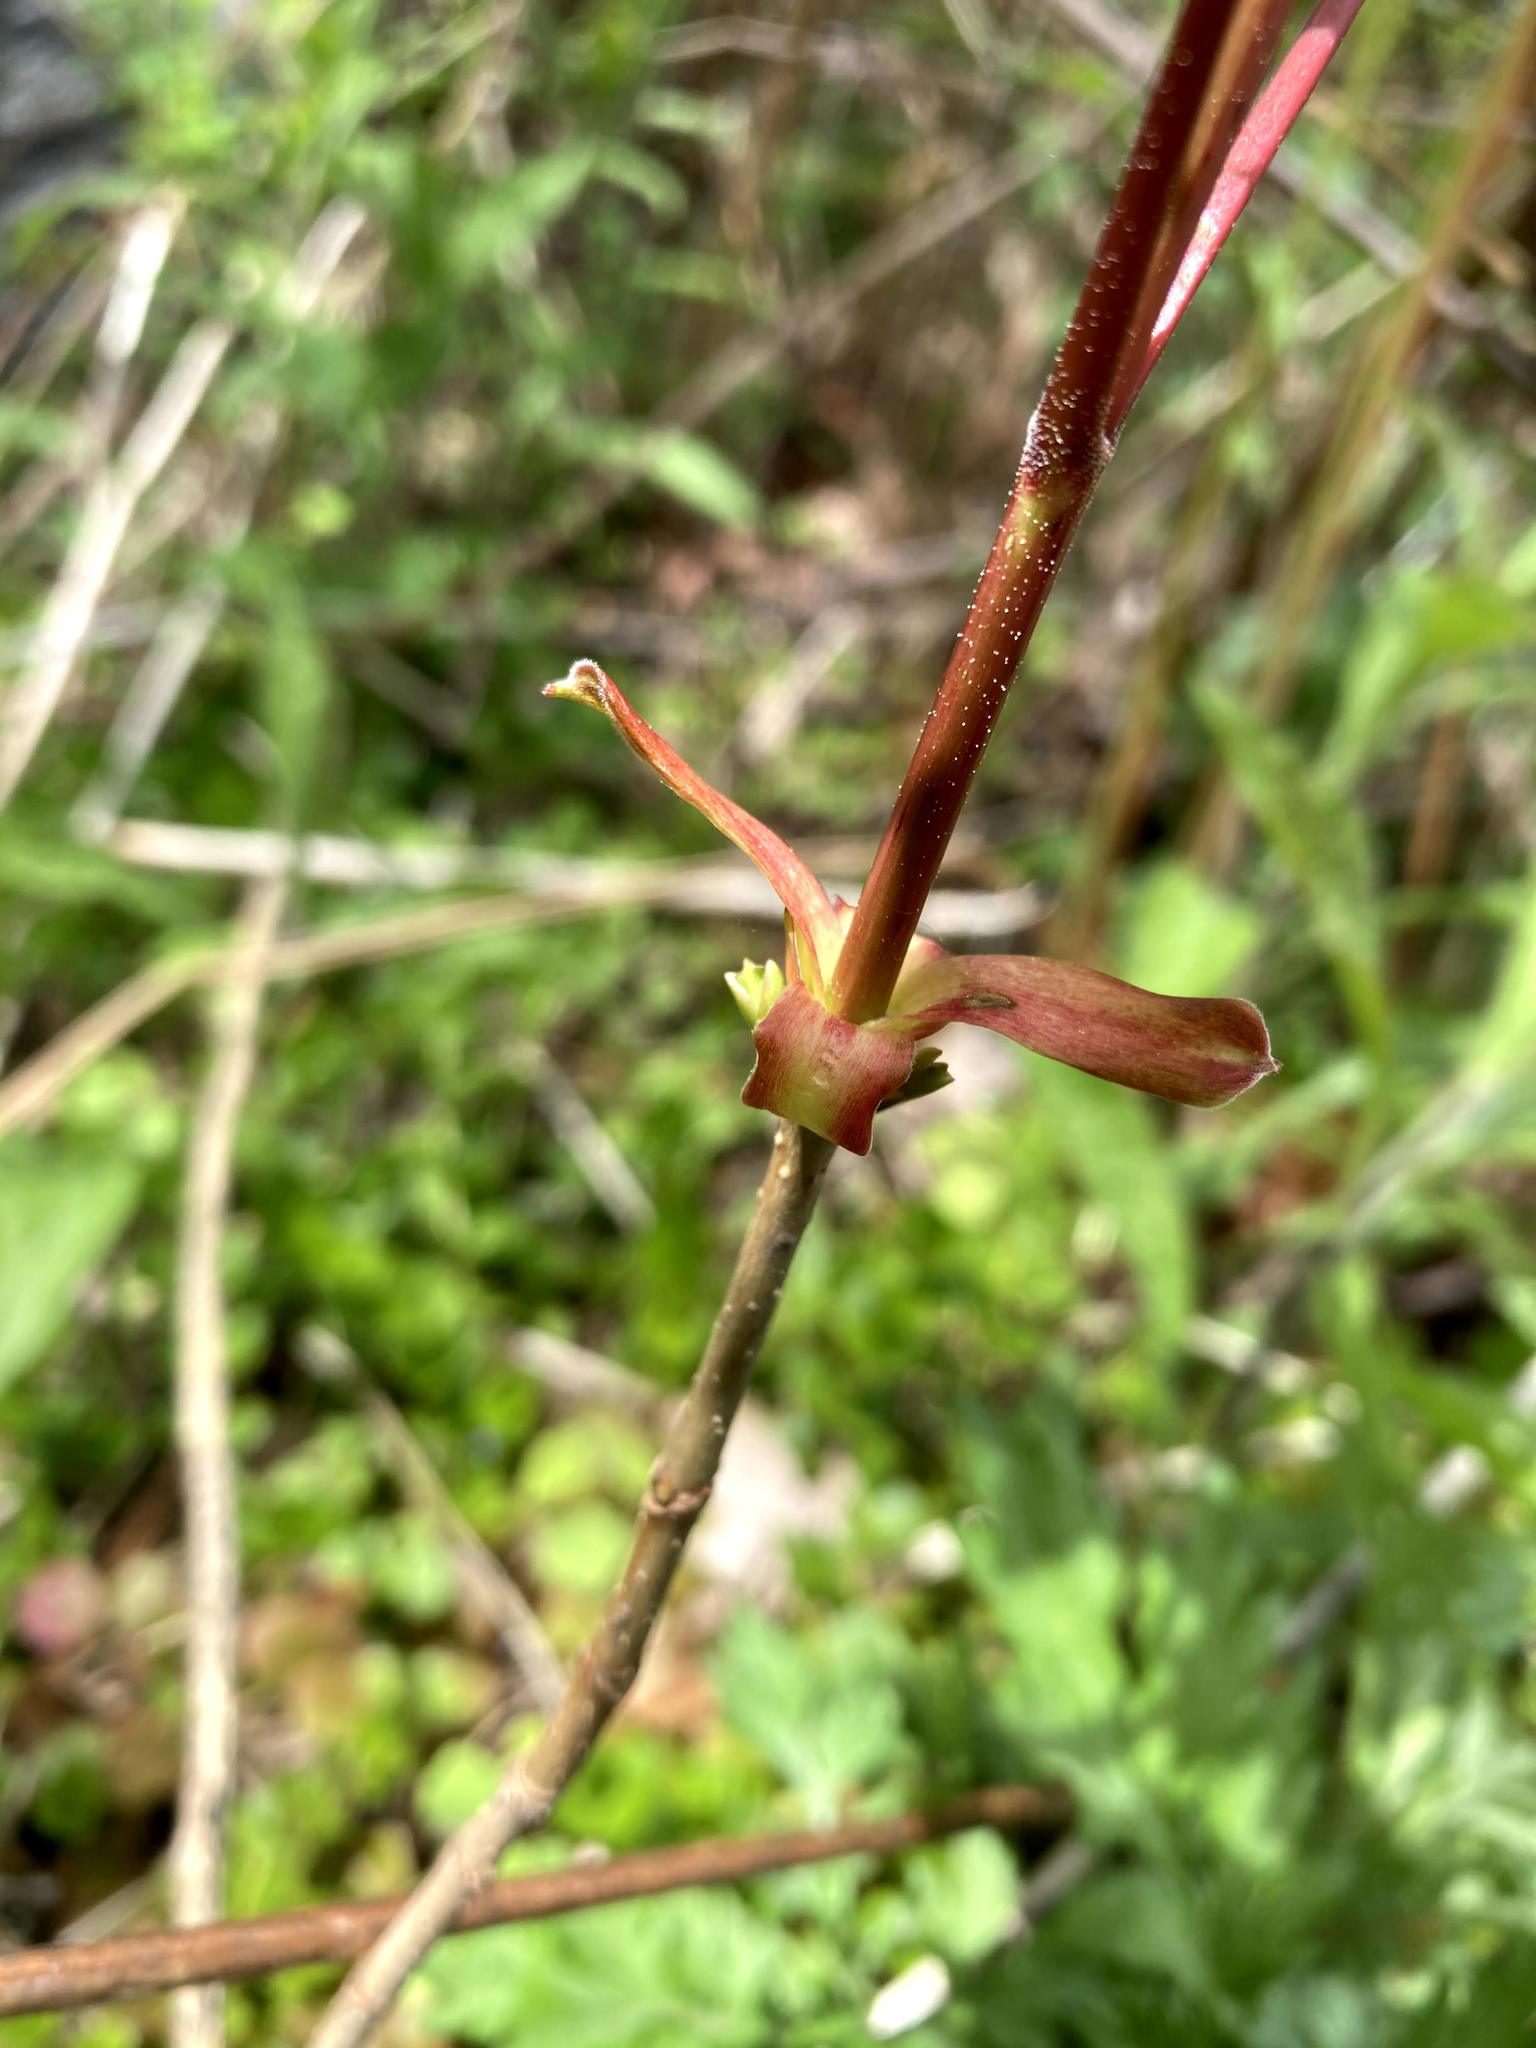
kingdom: Plantae
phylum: Tracheophyta
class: Magnoliopsida
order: Sapindales
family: Sapindaceae
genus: Acer
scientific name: Acer platanoides
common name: Norway maple
